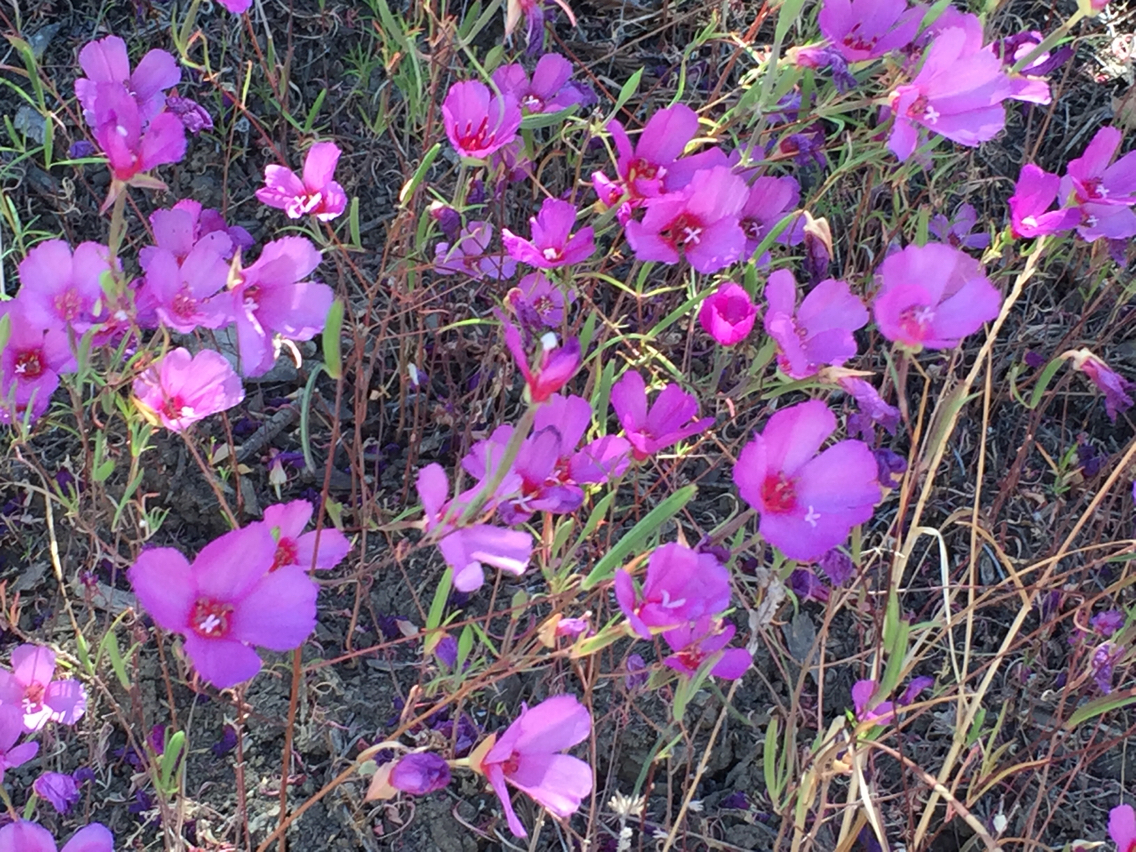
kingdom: Plantae
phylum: Tracheophyta
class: Magnoliopsida
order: Myrtales
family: Onagraceae
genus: Clarkia
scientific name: Clarkia rubicunda
